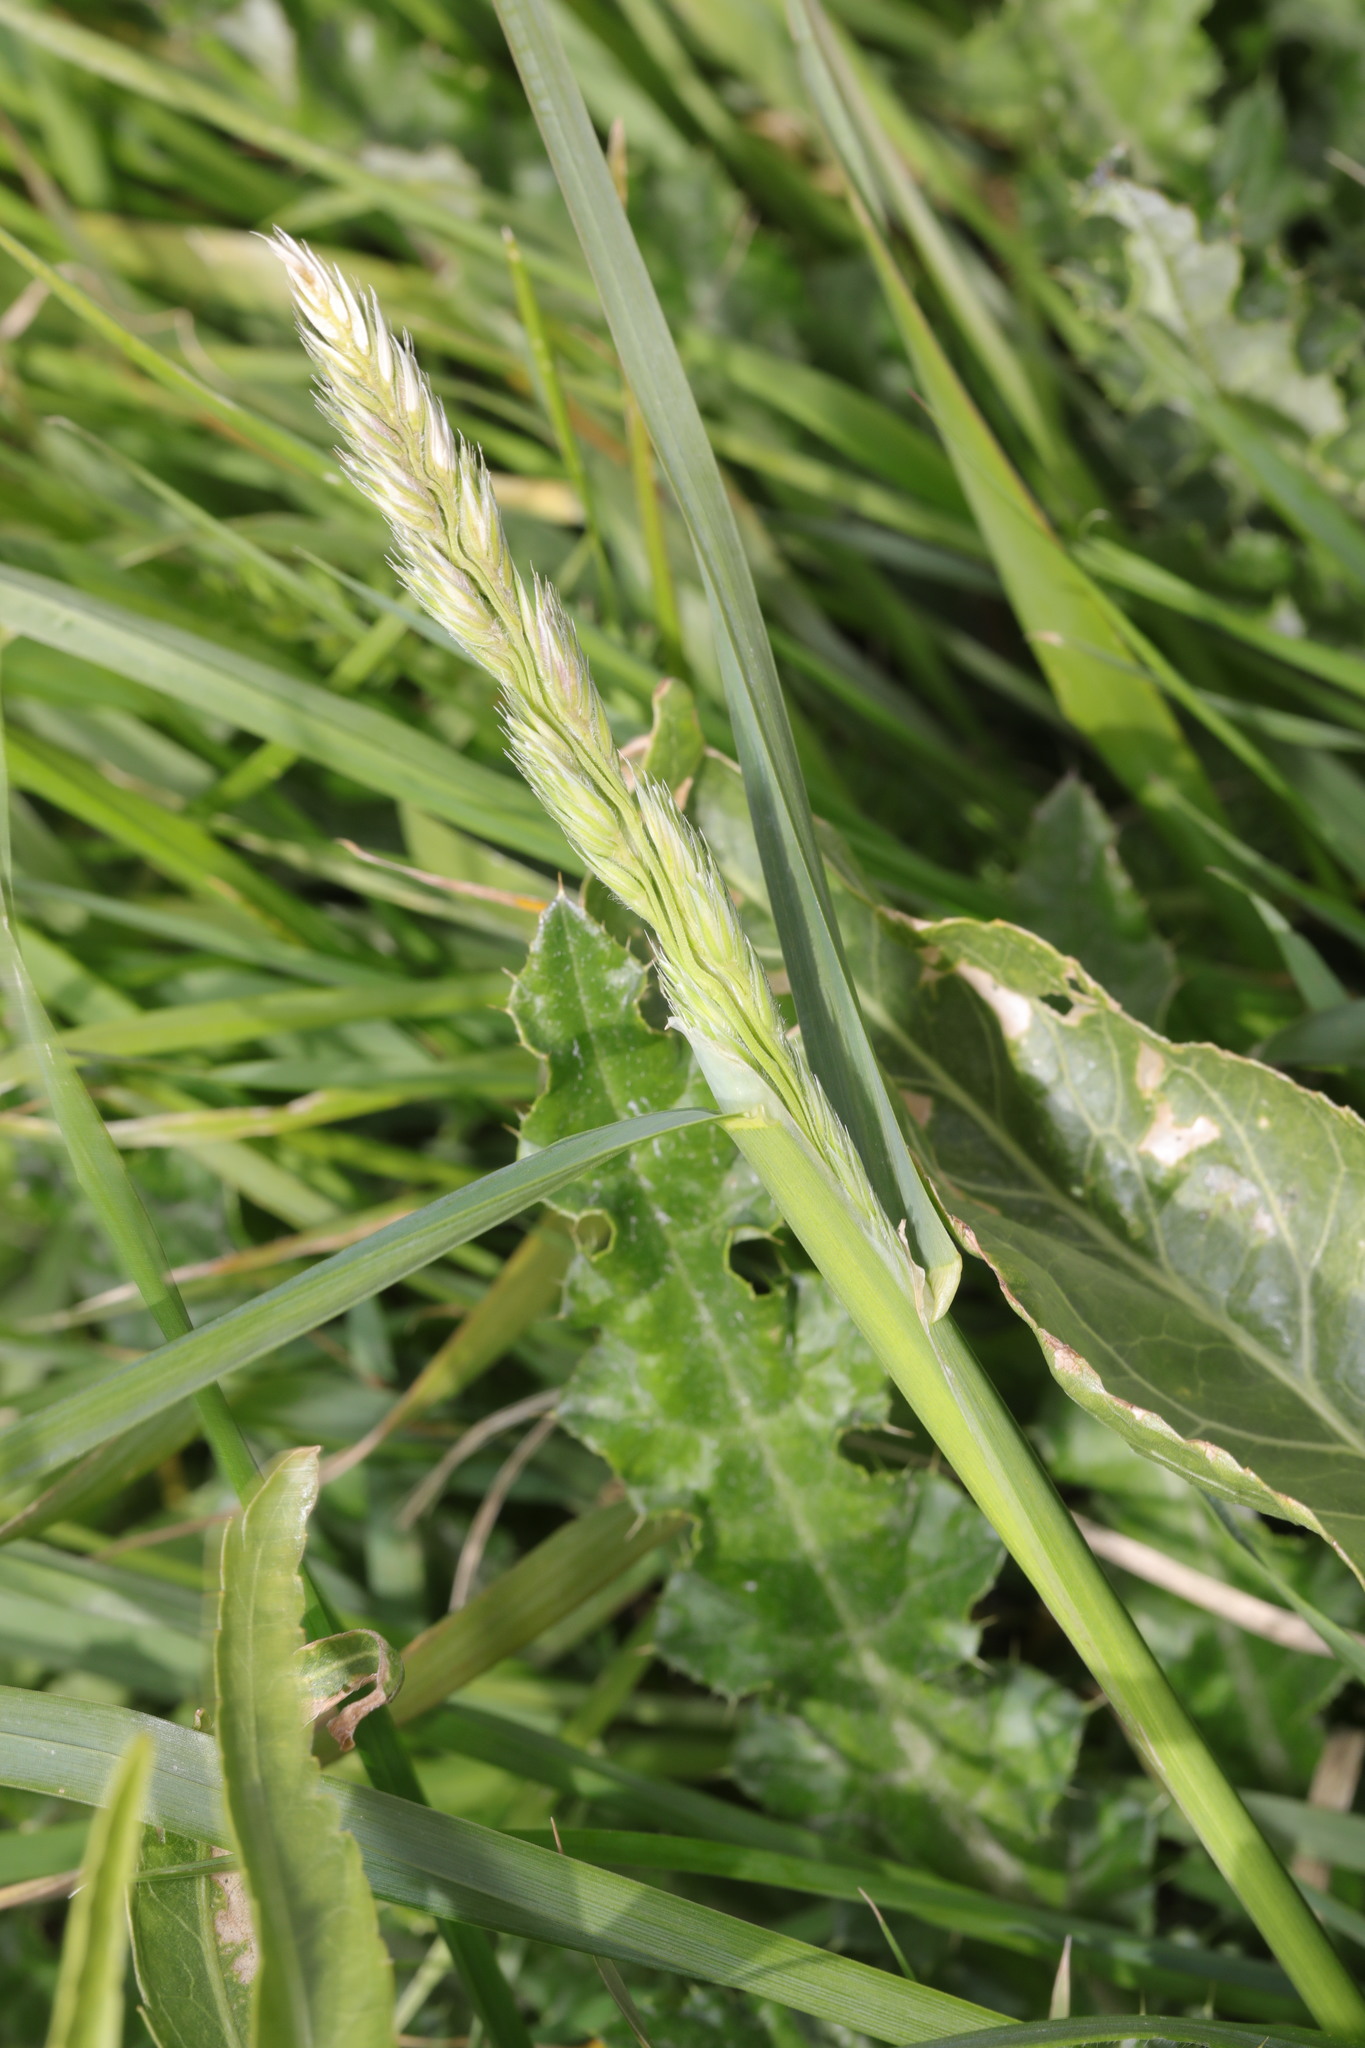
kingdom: Plantae
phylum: Tracheophyta
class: Liliopsida
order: Poales
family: Poaceae
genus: Dactylis
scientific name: Dactylis glomerata
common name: Orchardgrass
